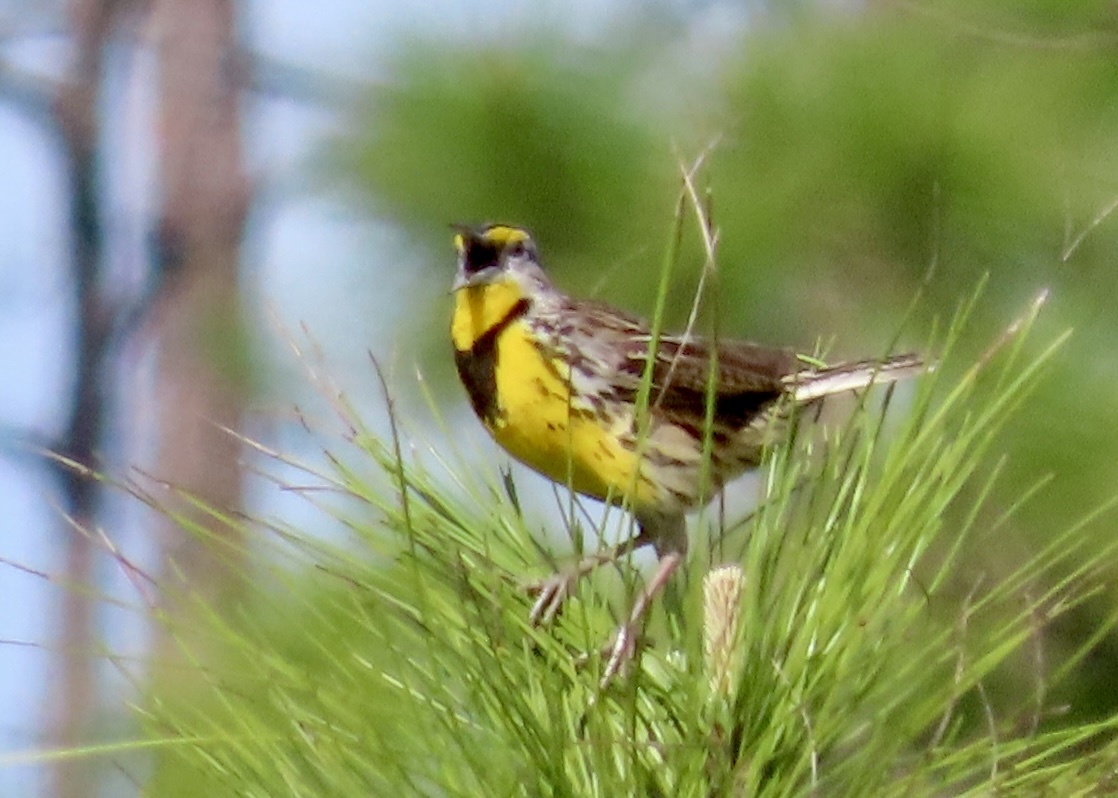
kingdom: Animalia
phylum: Chordata
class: Aves
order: Passeriformes
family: Icteridae
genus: Sturnella
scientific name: Sturnella magna
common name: Eastern meadowlark
